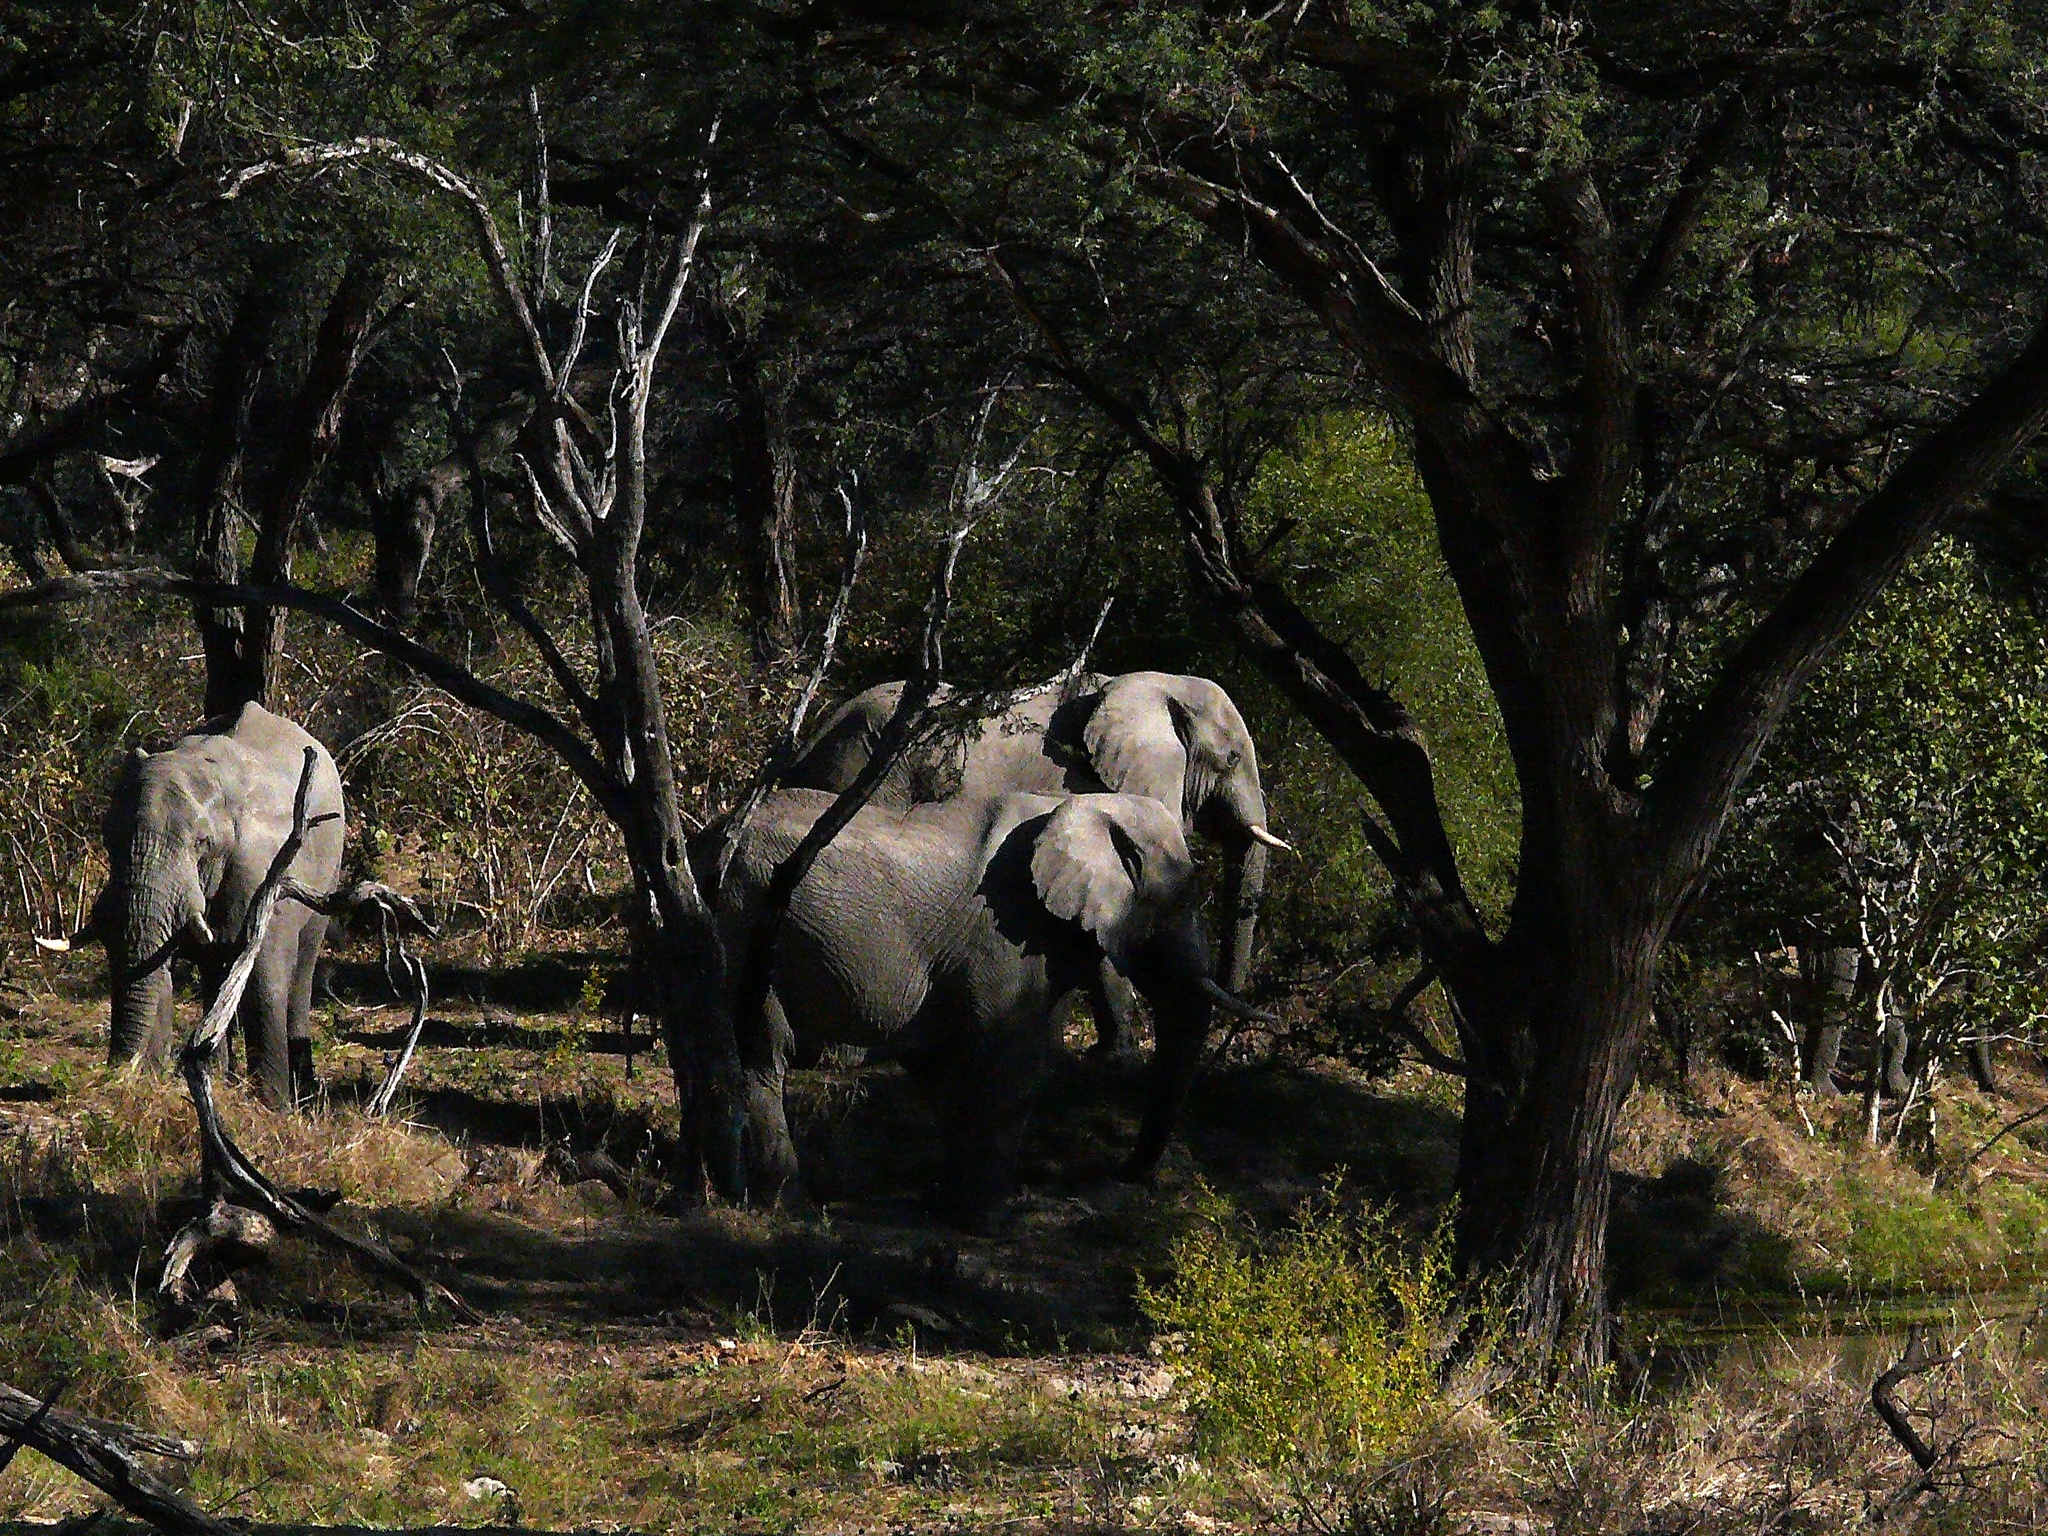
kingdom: Animalia
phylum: Chordata
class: Mammalia
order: Proboscidea
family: Elephantidae
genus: Loxodonta
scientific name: Loxodonta africana
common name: African elephant
